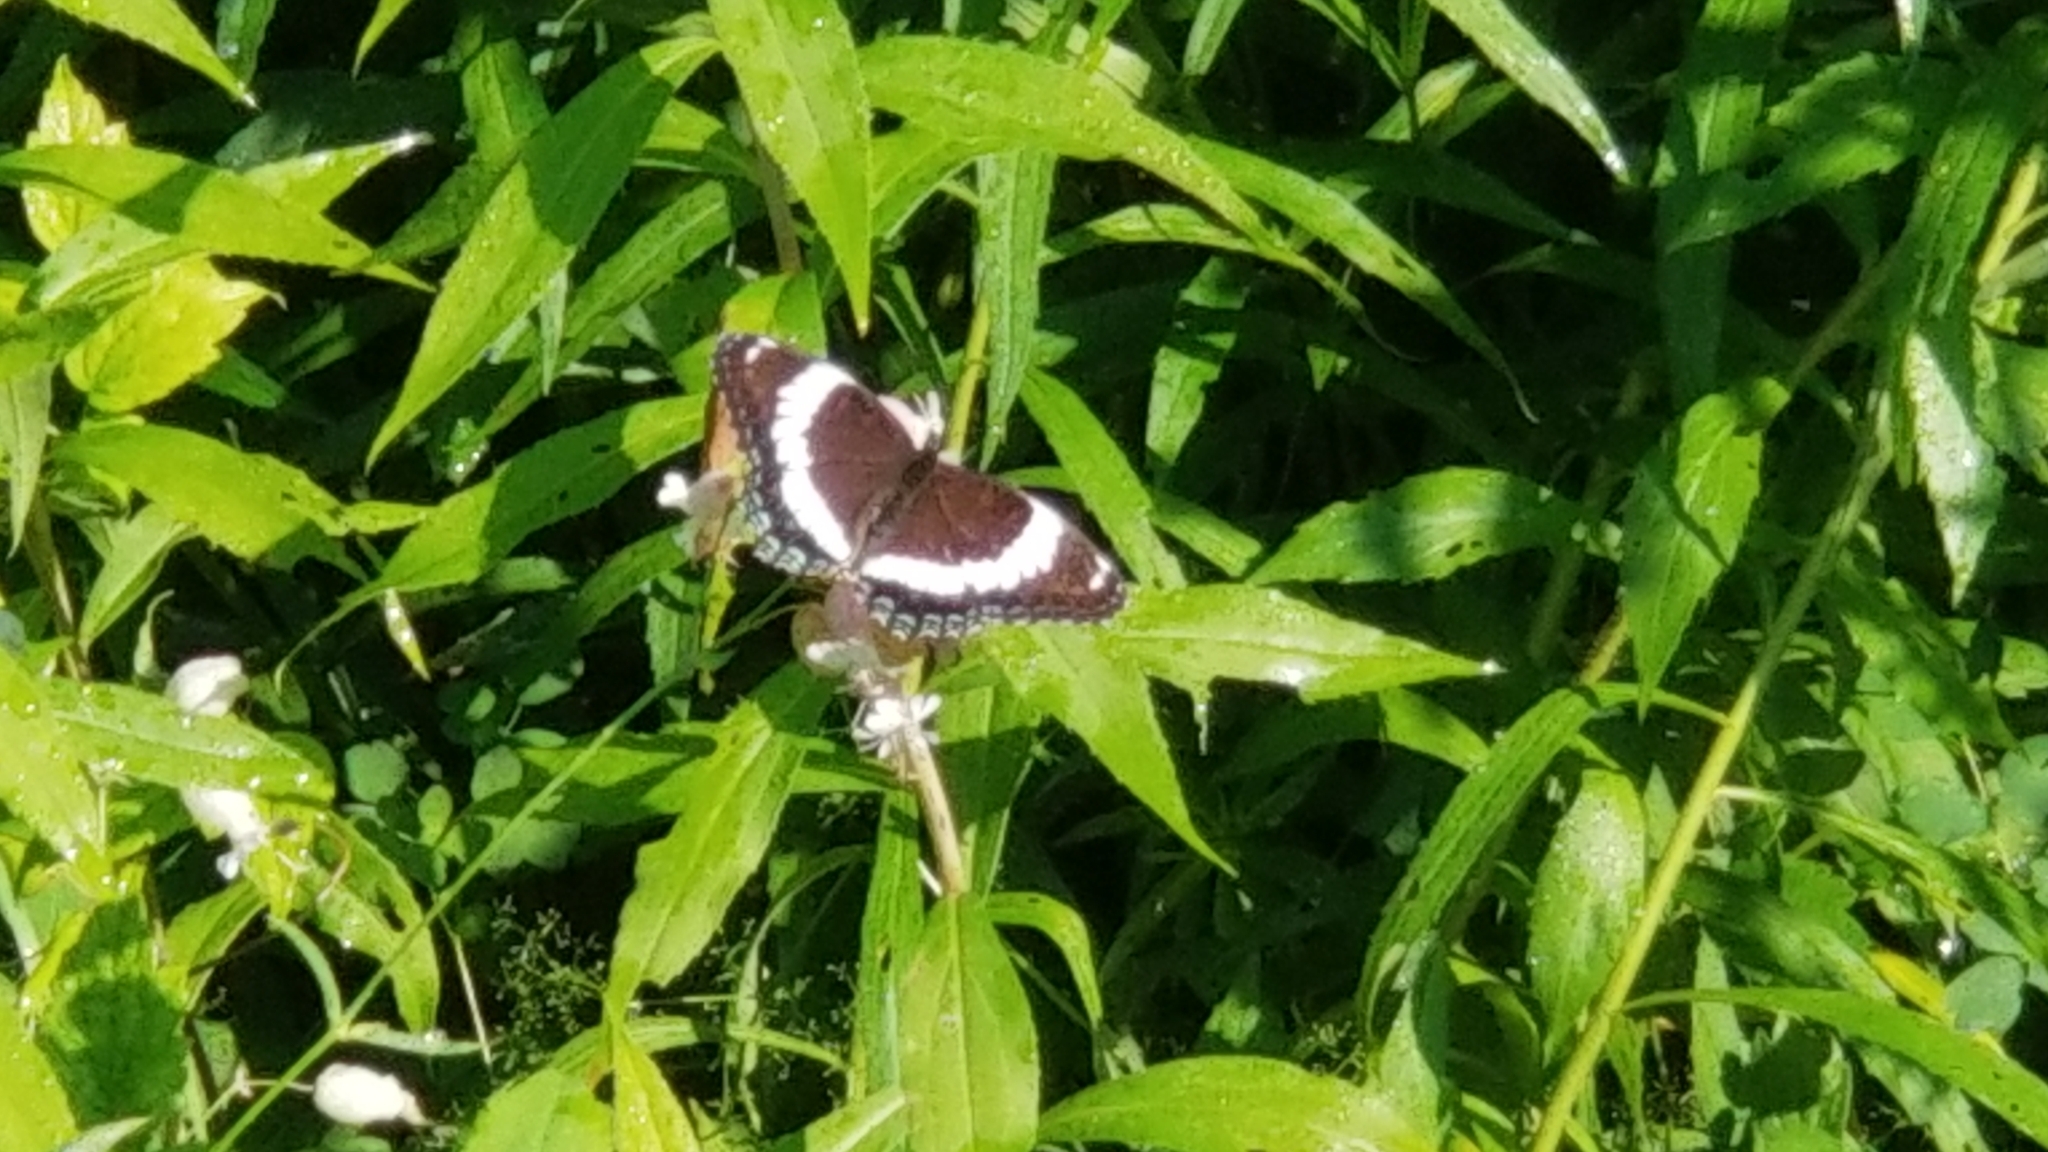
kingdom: Animalia
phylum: Arthropoda
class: Insecta
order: Lepidoptera
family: Nymphalidae
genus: Limenitis
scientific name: Limenitis arthemis
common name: Red-spotted admiral
